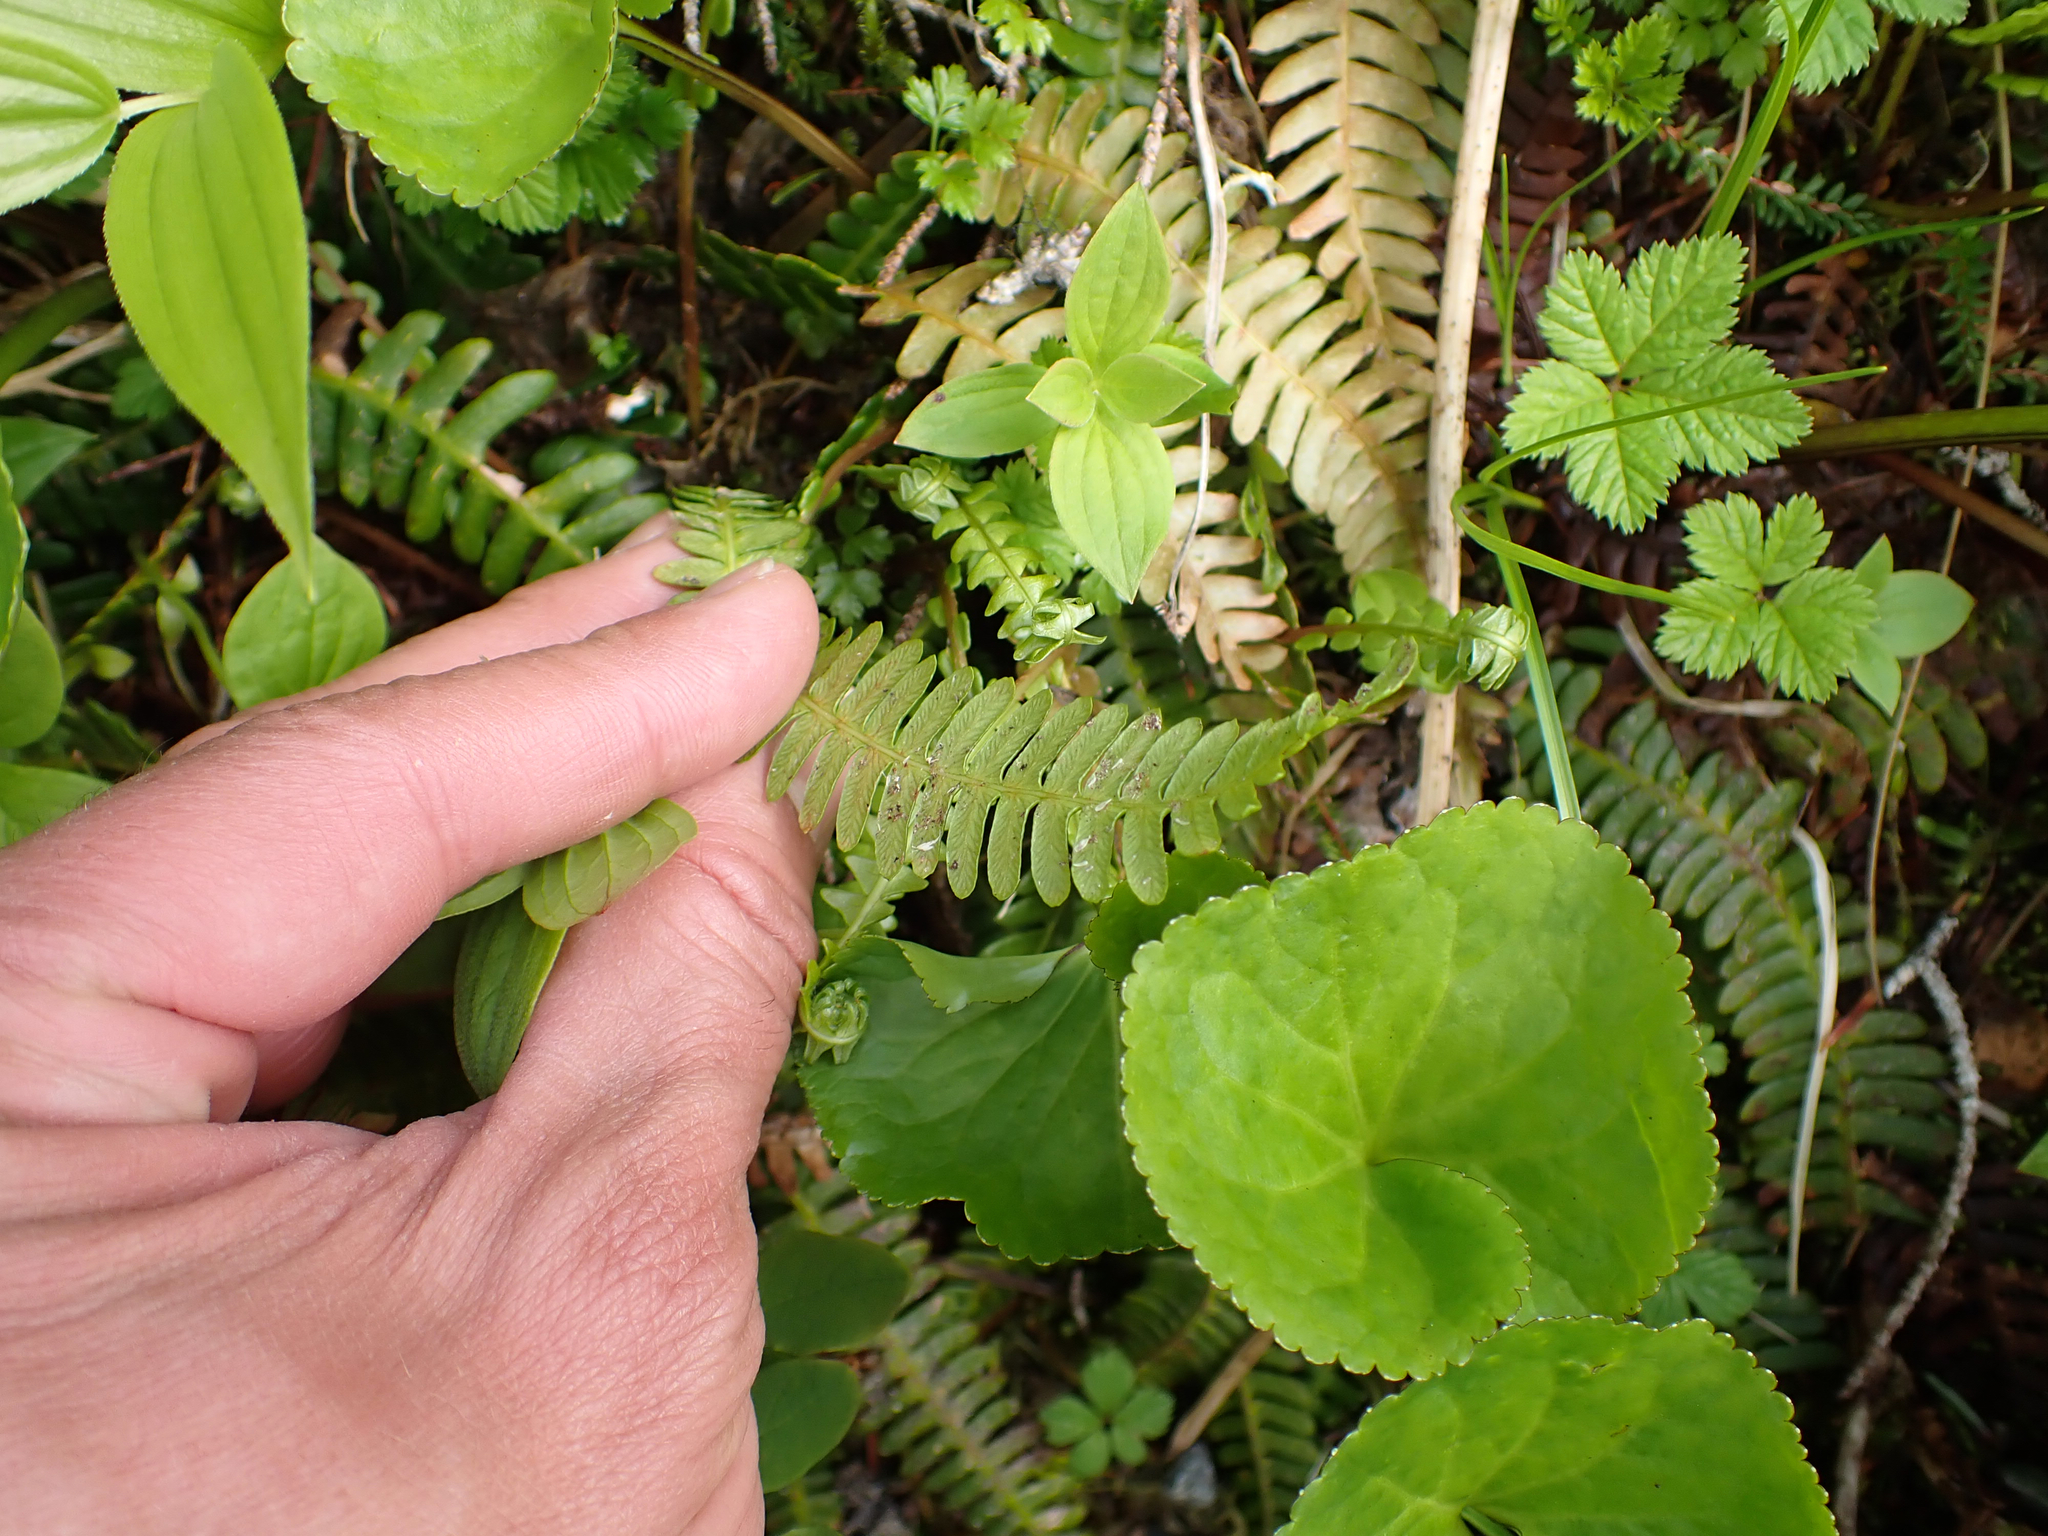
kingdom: Plantae
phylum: Tracheophyta
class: Polypodiopsida
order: Polypodiales
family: Blechnaceae
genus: Struthiopteris
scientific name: Struthiopteris spicant
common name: Deer fern
